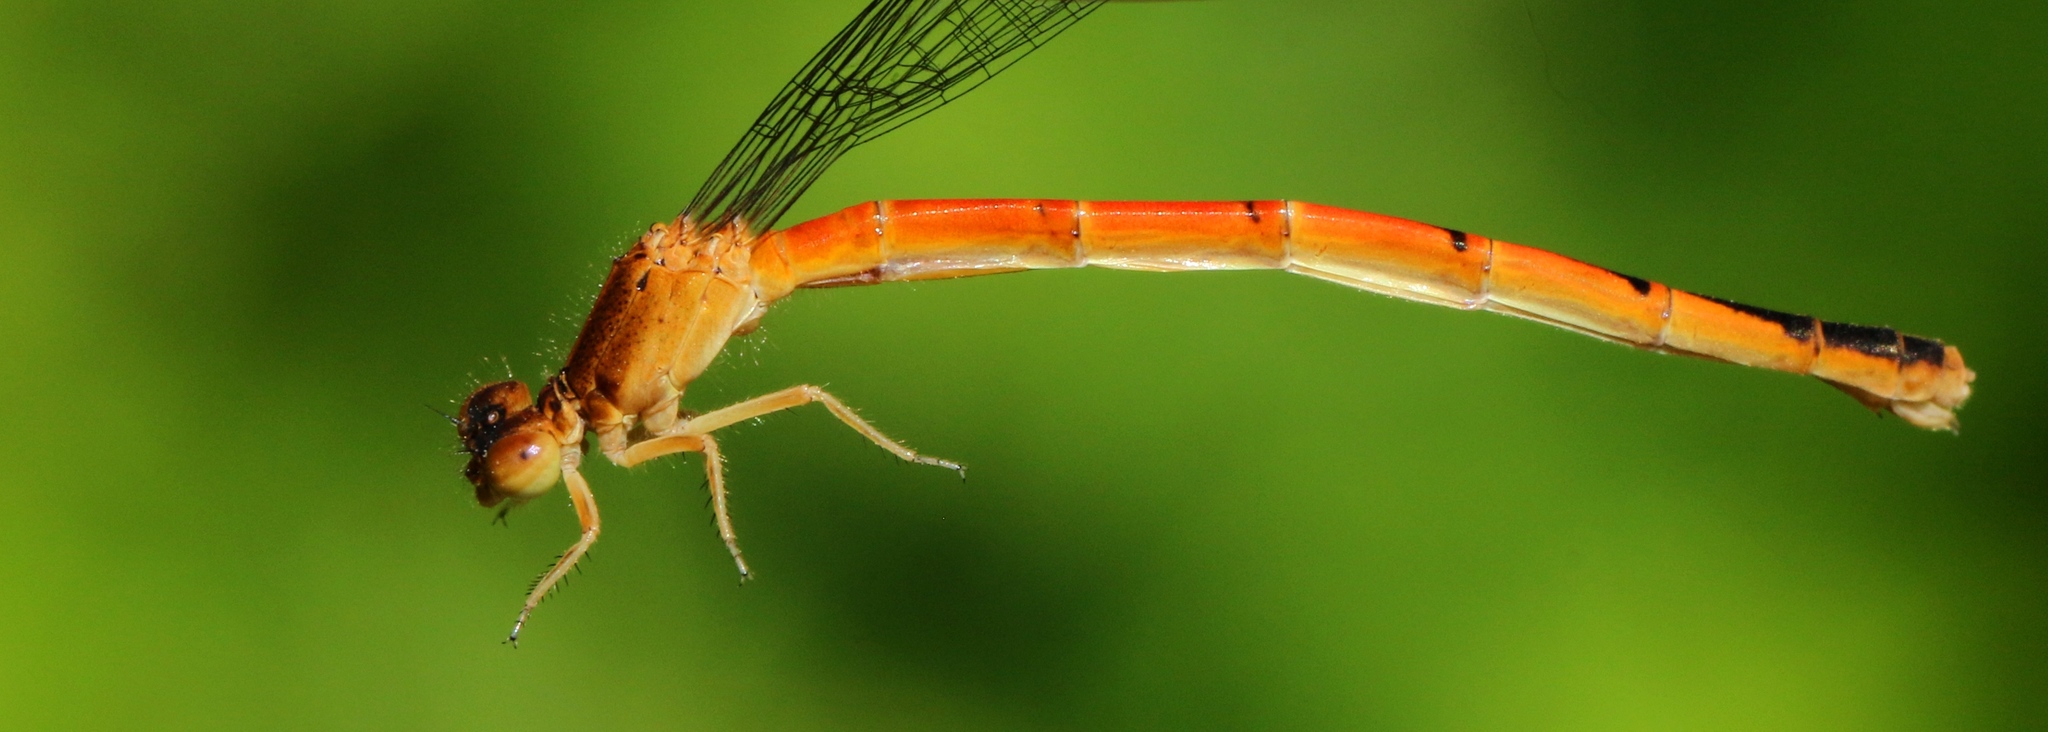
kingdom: Animalia
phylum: Arthropoda
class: Insecta
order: Odonata
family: Coenagrionidae
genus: Amphiagrion
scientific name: Amphiagrion saucium
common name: Eastern red damsel
